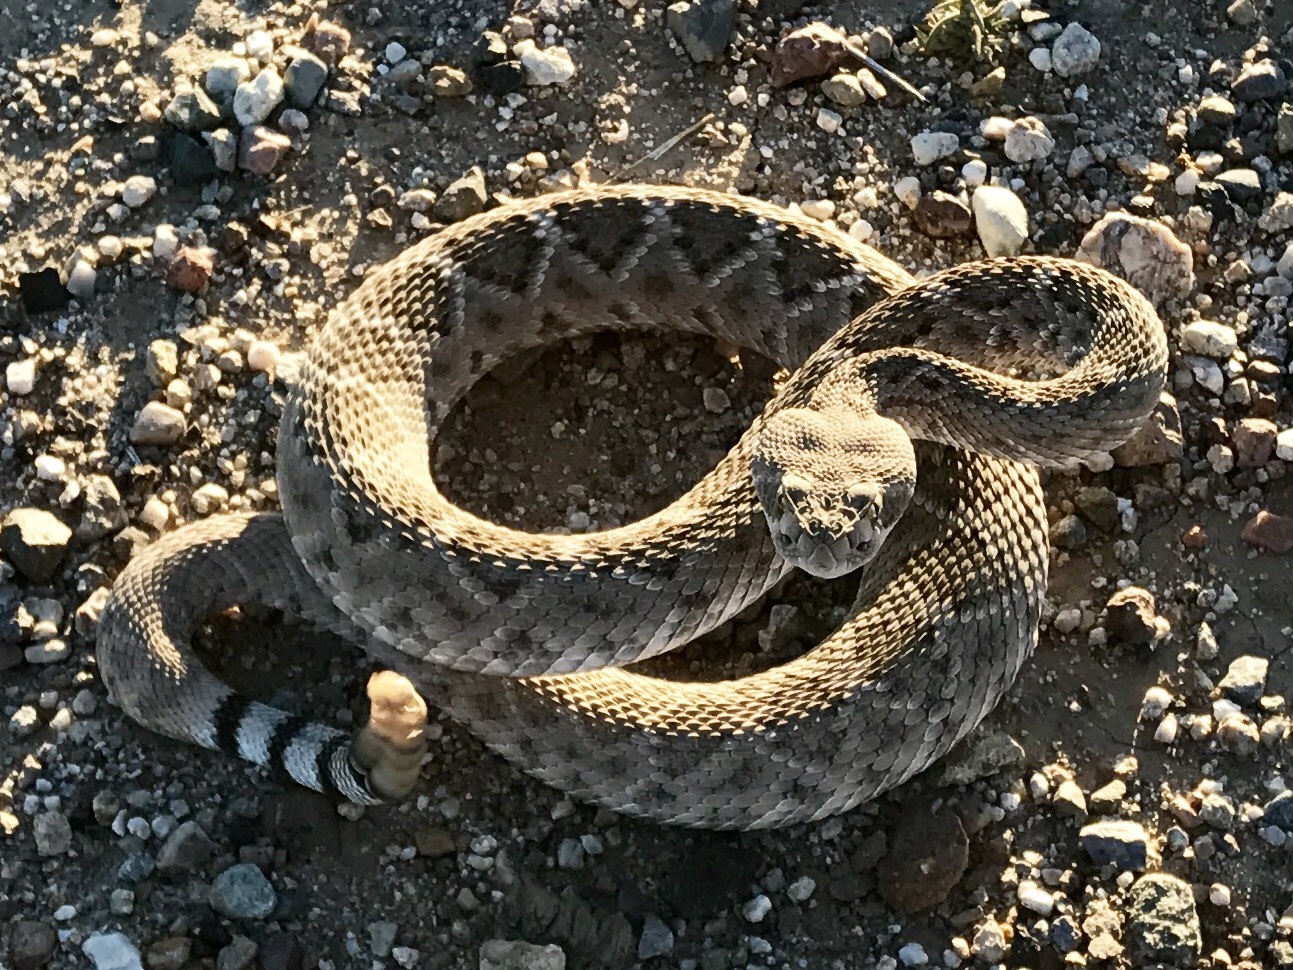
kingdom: Animalia
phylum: Chordata
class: Squamata
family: Viperidae
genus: Crotalus
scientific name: Crotalus atrox
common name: Western diamond-backed rattlesnake
